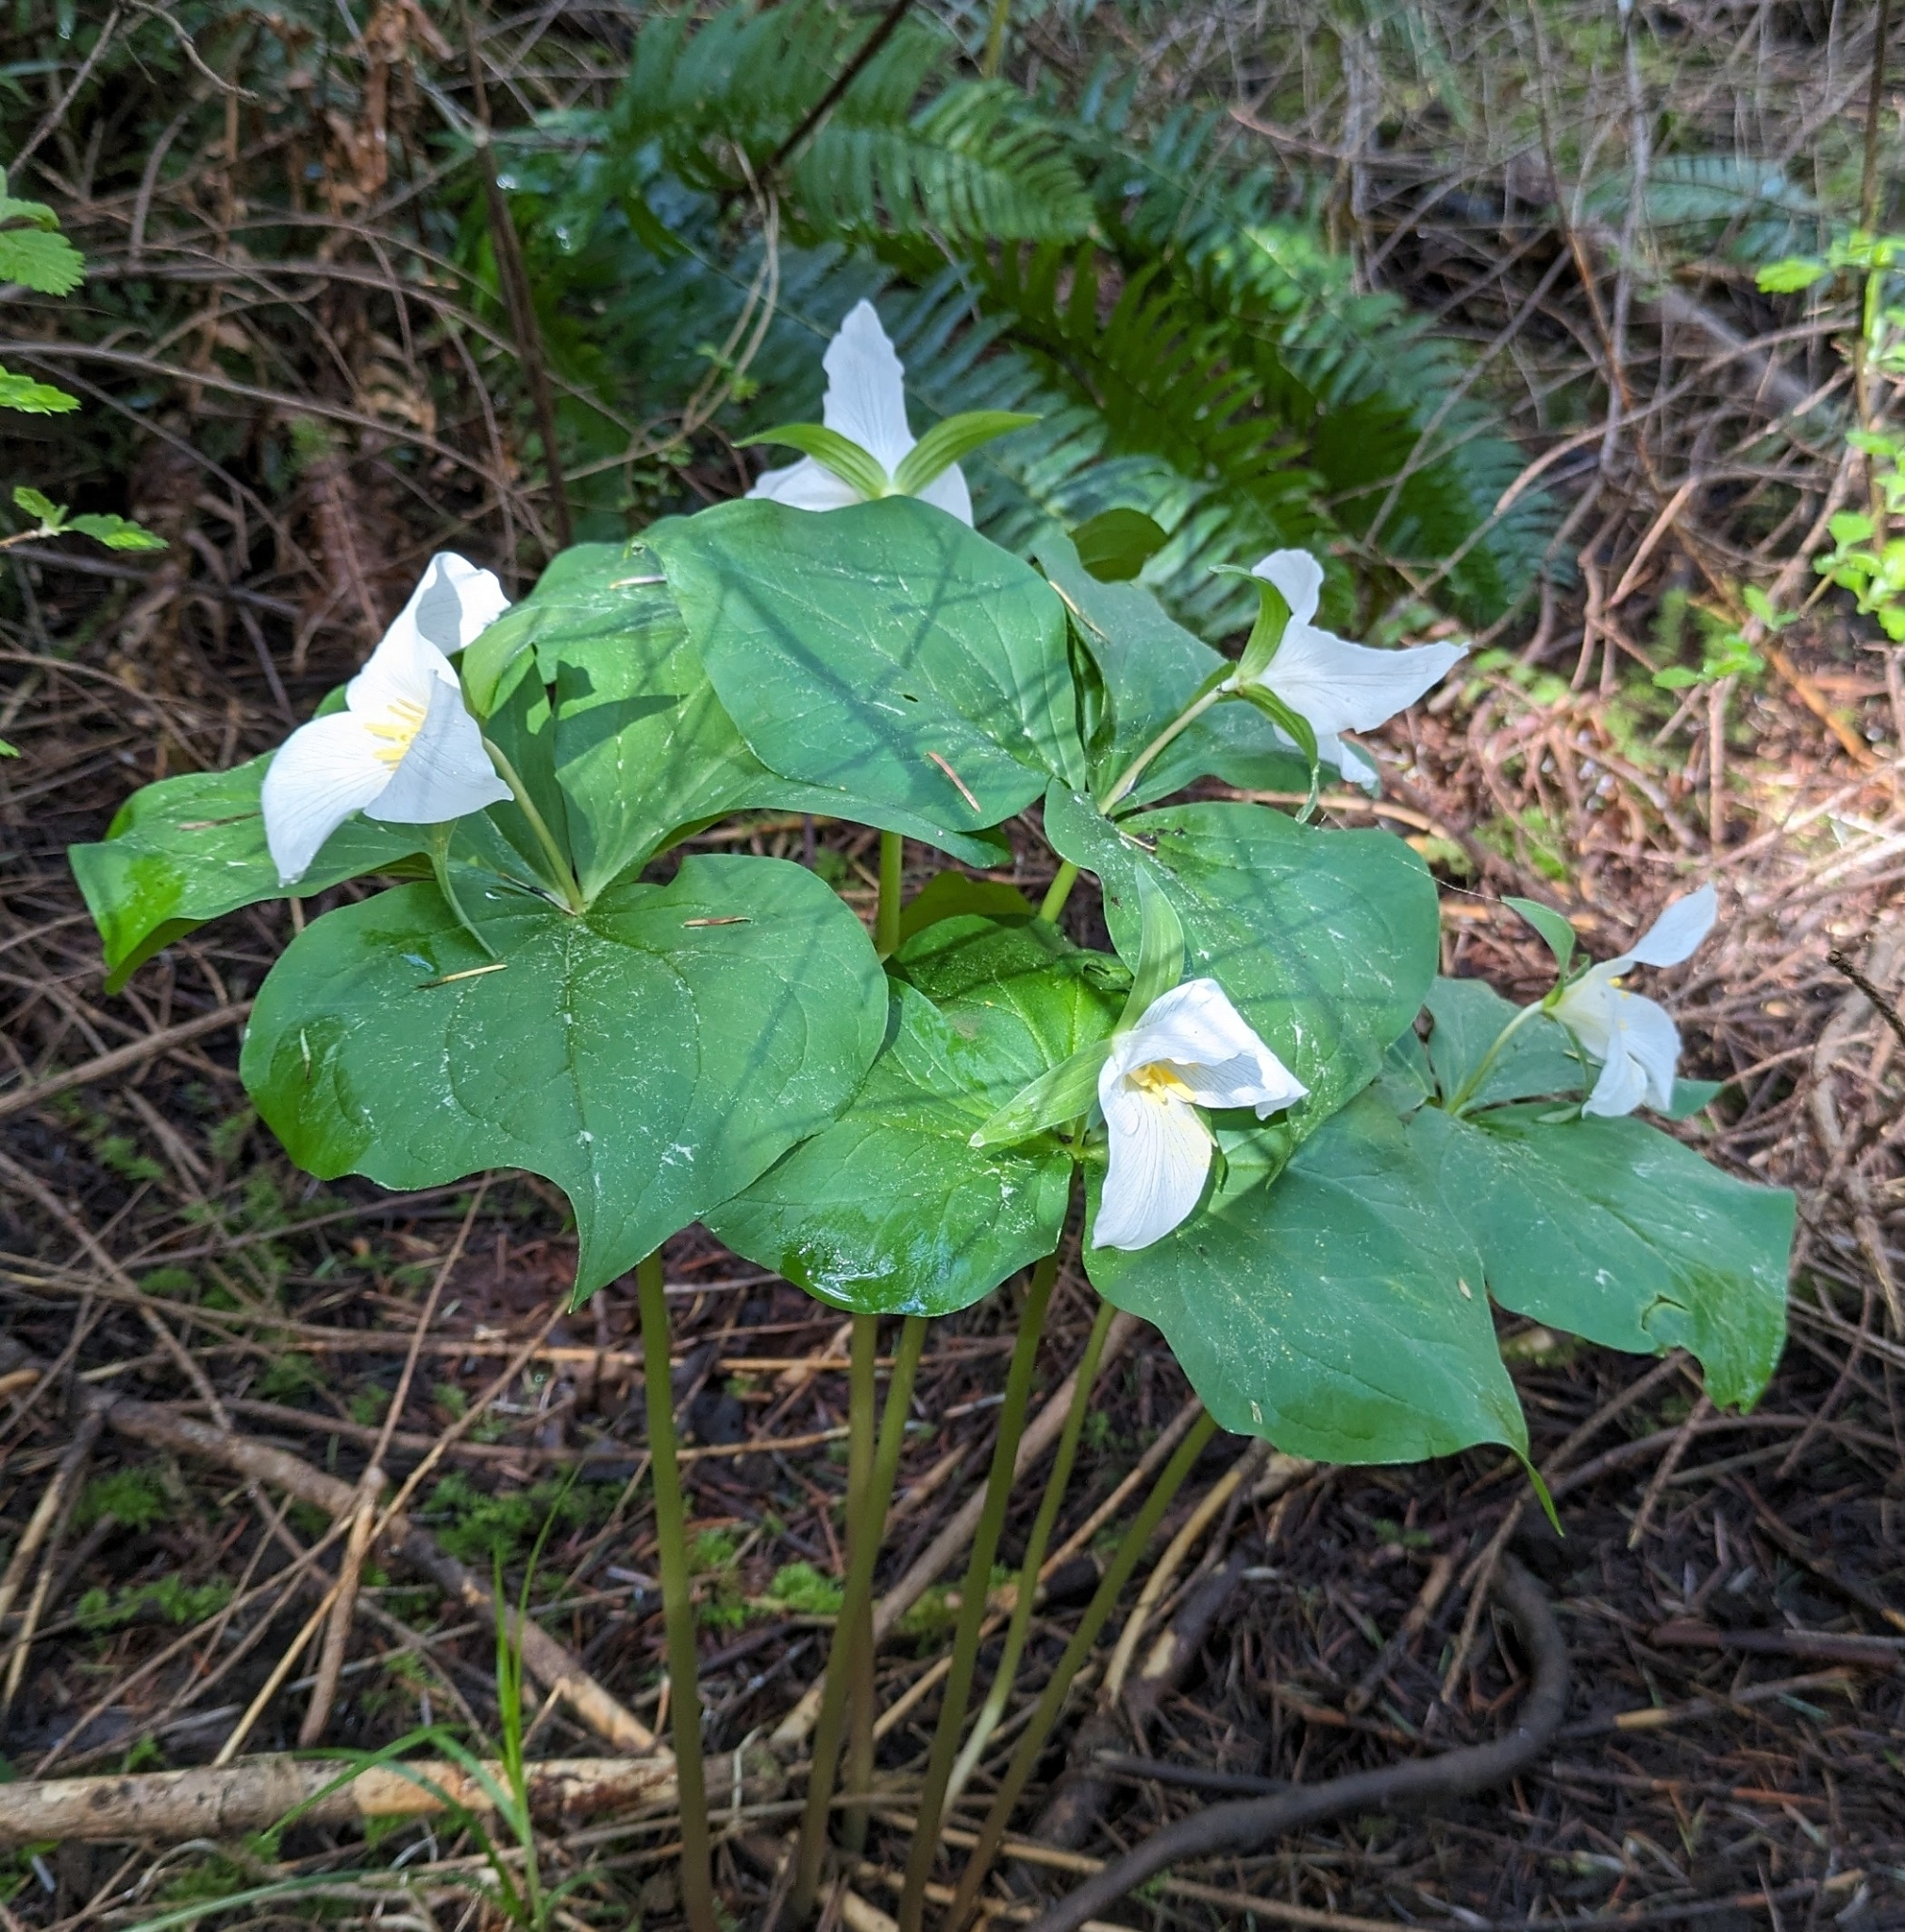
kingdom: Plantae
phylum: Tracheophyta
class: Liliopsida
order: Liliales
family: Melanthiaceae
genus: Trillium
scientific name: Trillium ovatum
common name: Pacific trillium
